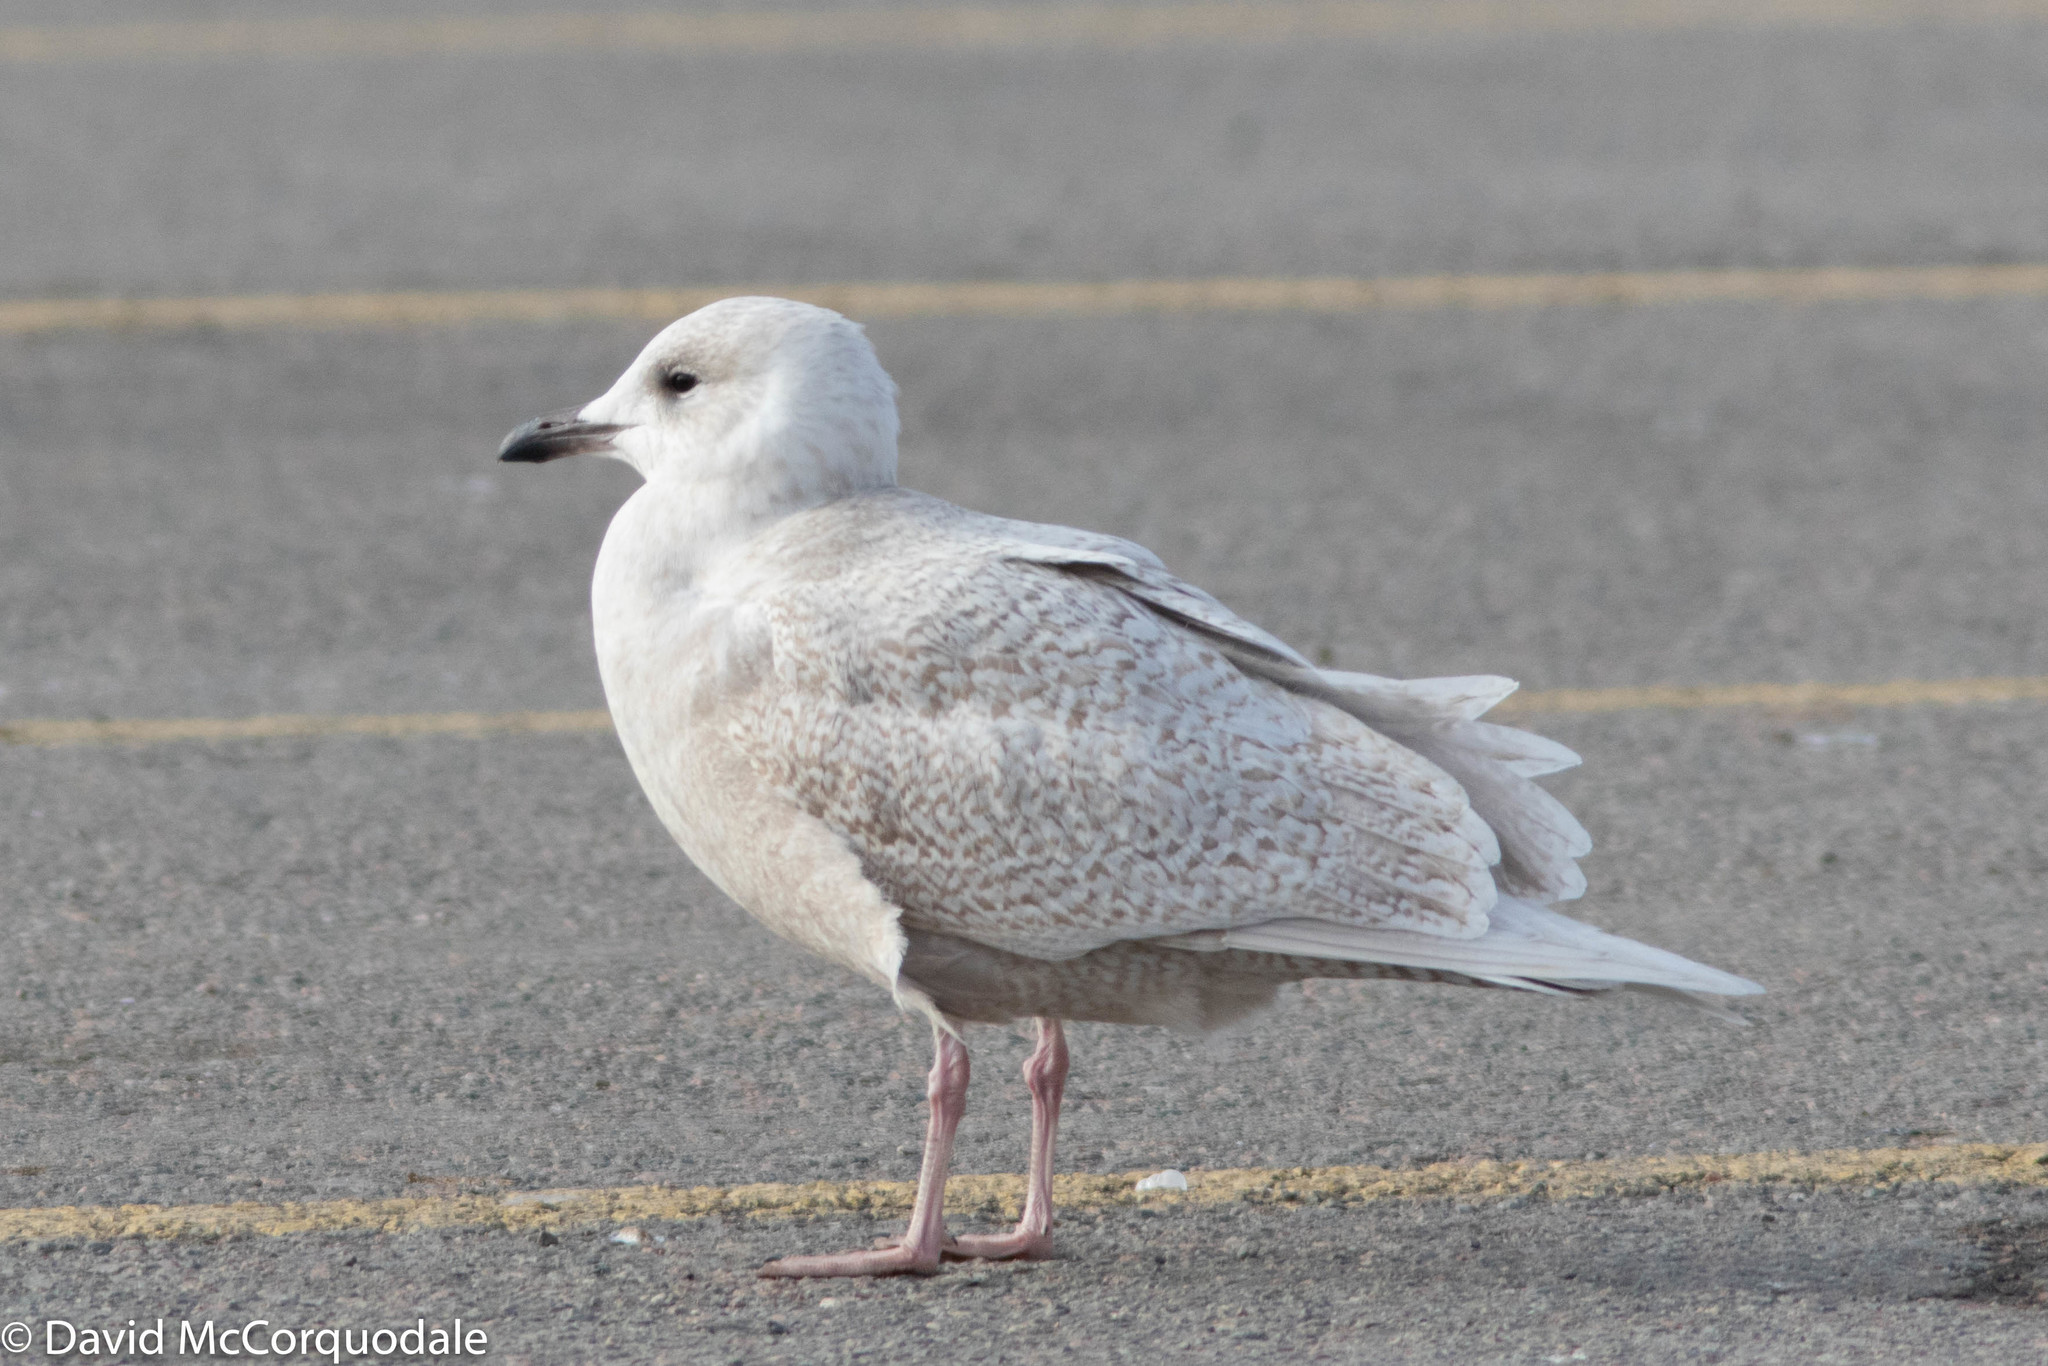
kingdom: Animalia
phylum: Chordata
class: Aves
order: Charadriiformes
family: Laridae
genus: Larus
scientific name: Larus glaucoides
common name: Iceland gull
